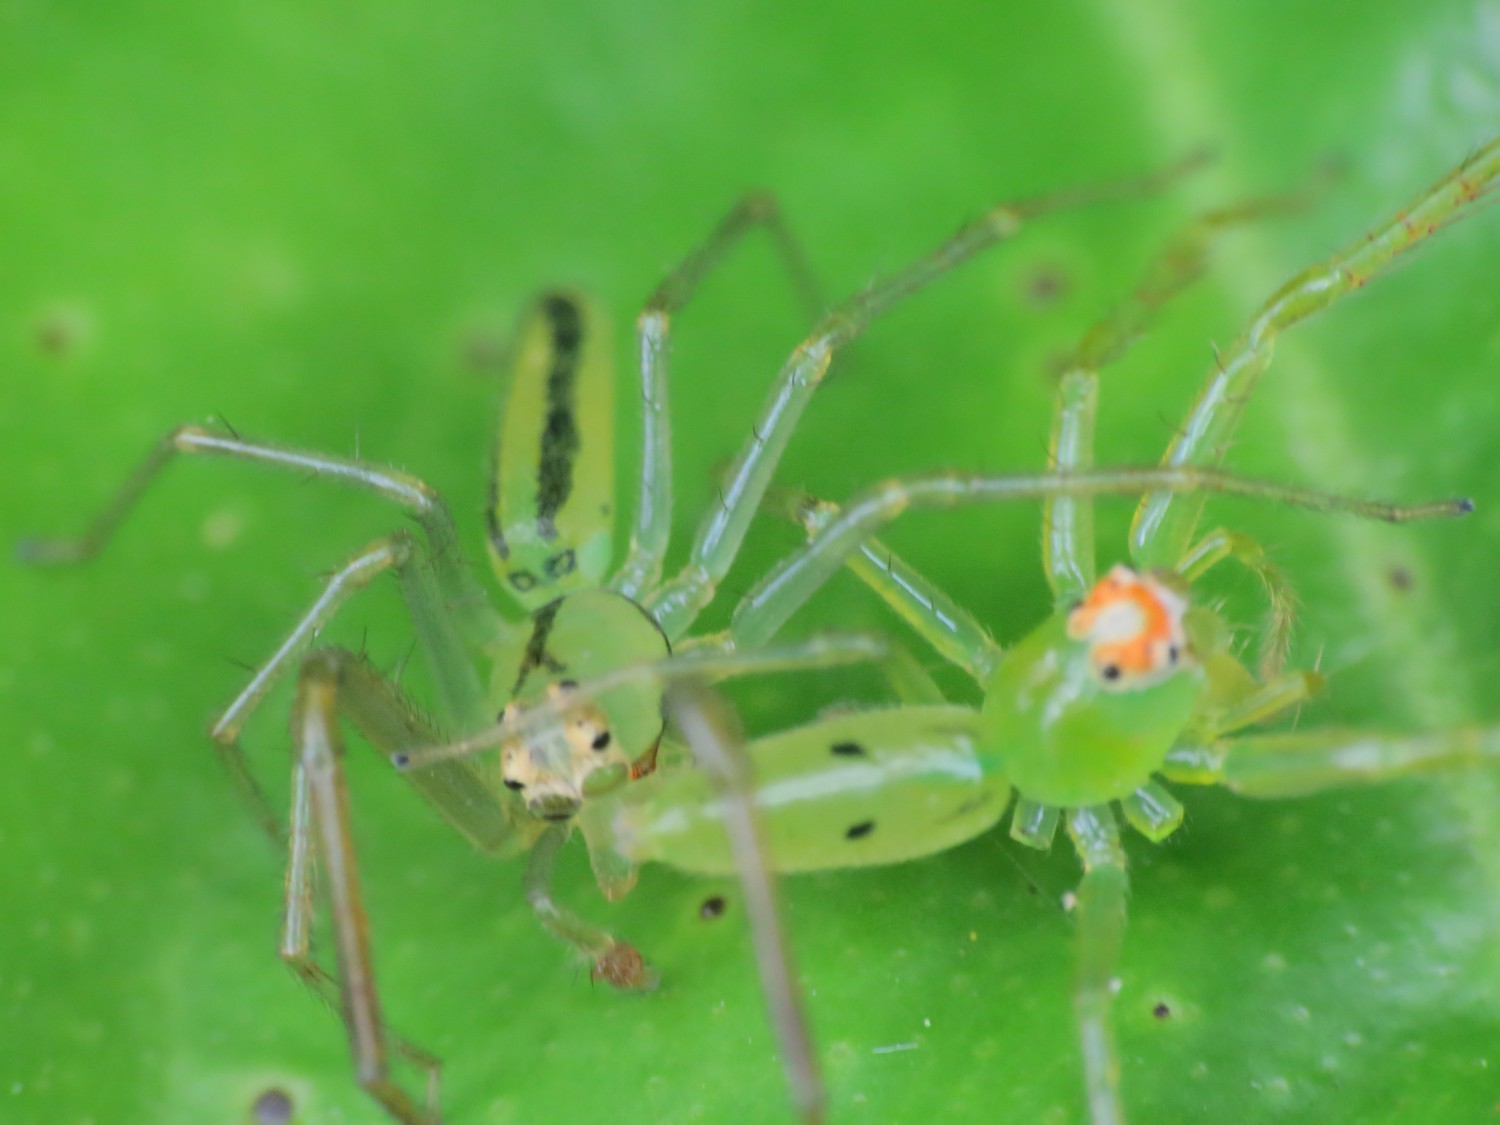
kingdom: Animalia
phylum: Arthropoda
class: Arachnida
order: Araneae
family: Salticidae
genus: Lyssomanes
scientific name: Lyssomanes pauper
